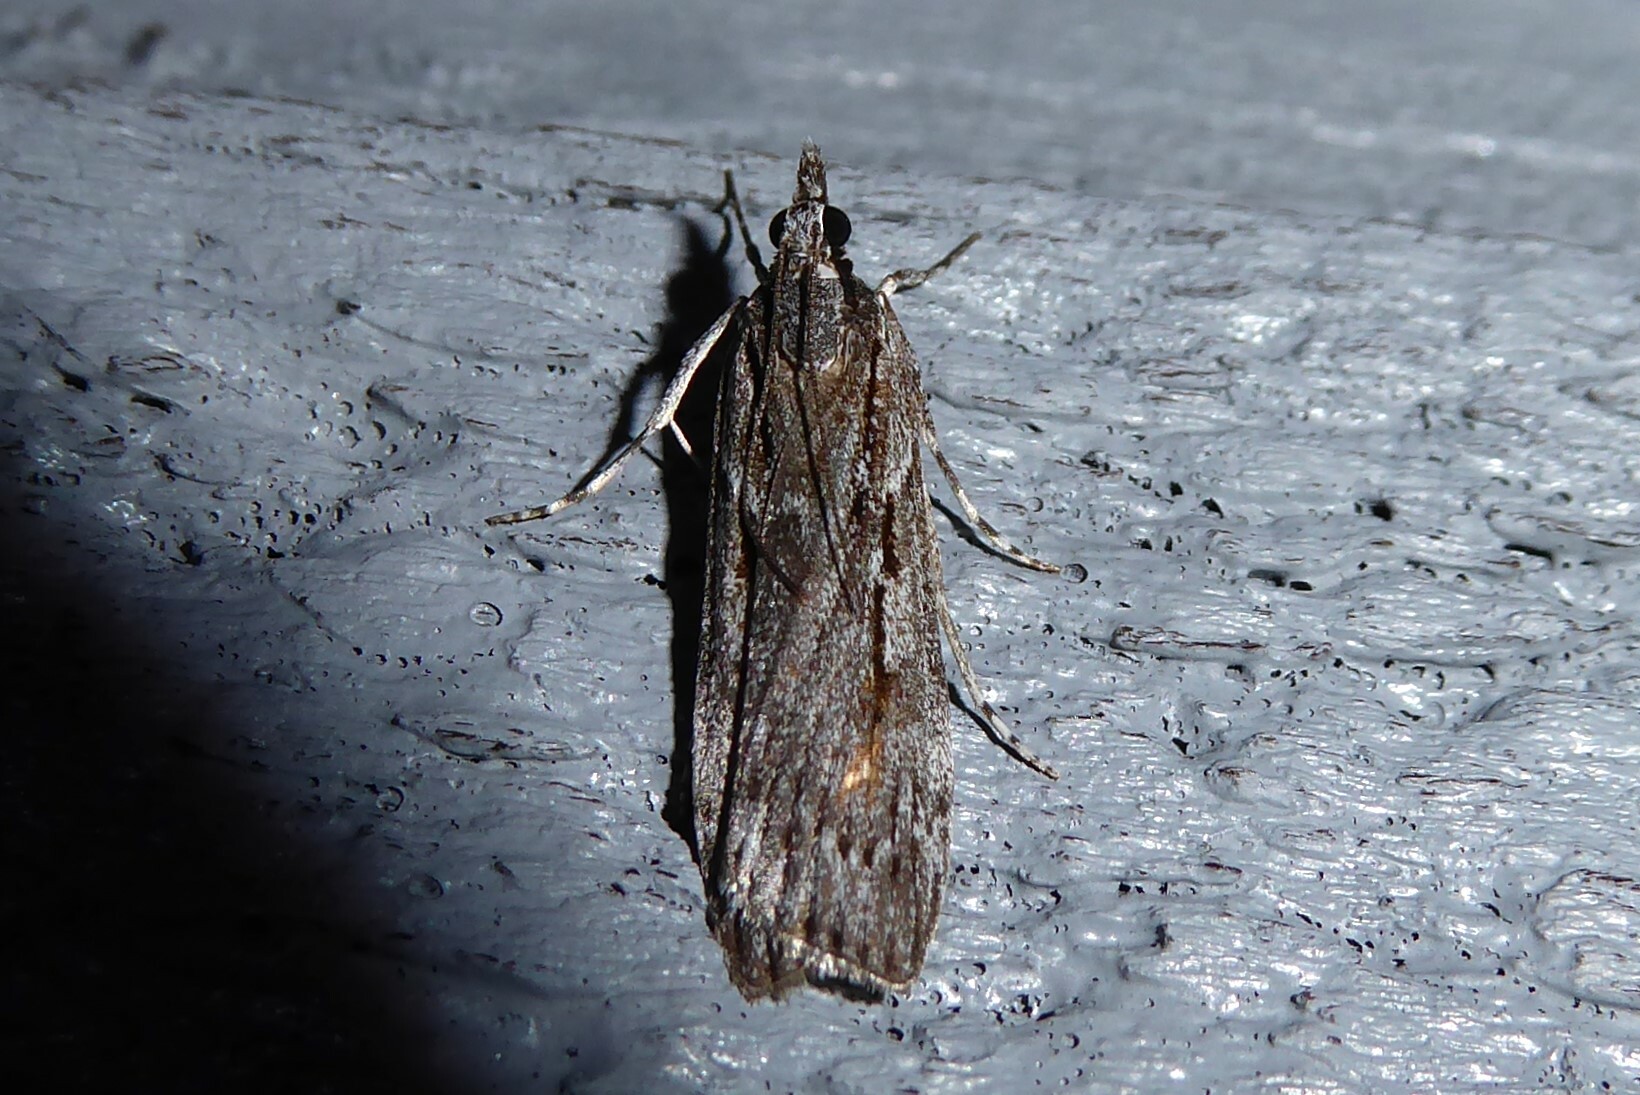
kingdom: Animalia
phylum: Arthropoda
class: Insecta
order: Lepidoptera
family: Crambidae
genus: Scoparia
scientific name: Scoparia indistinctalis
